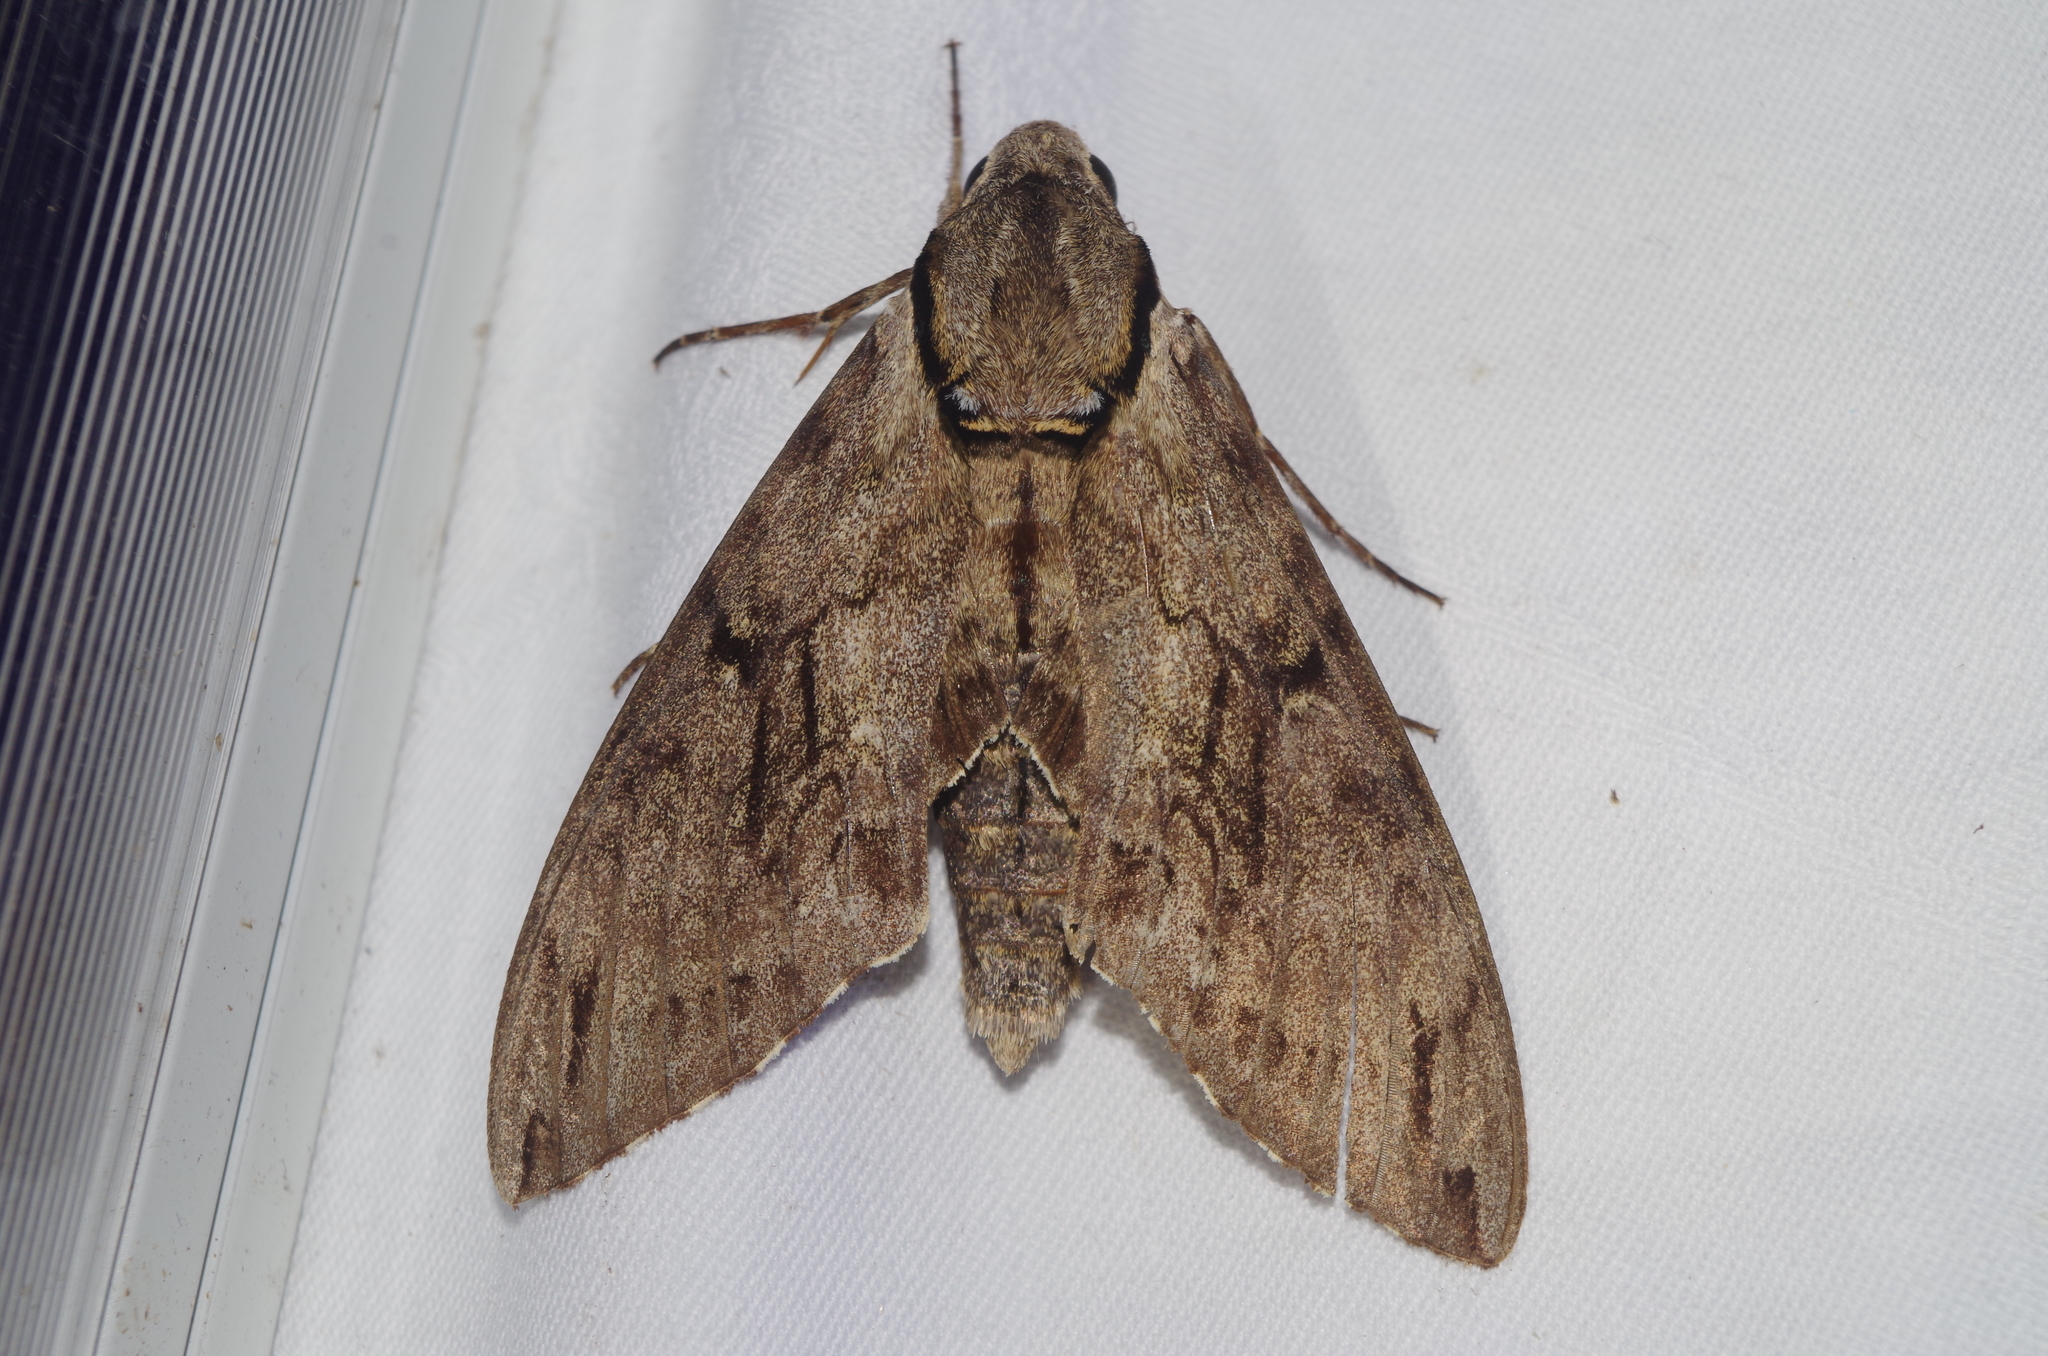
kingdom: Animalia
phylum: Arthropoda
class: Insecta
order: Lepidoptera
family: Sphingidae
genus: Psilogramma
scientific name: Psilogramma increta
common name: Gray hawk moth
